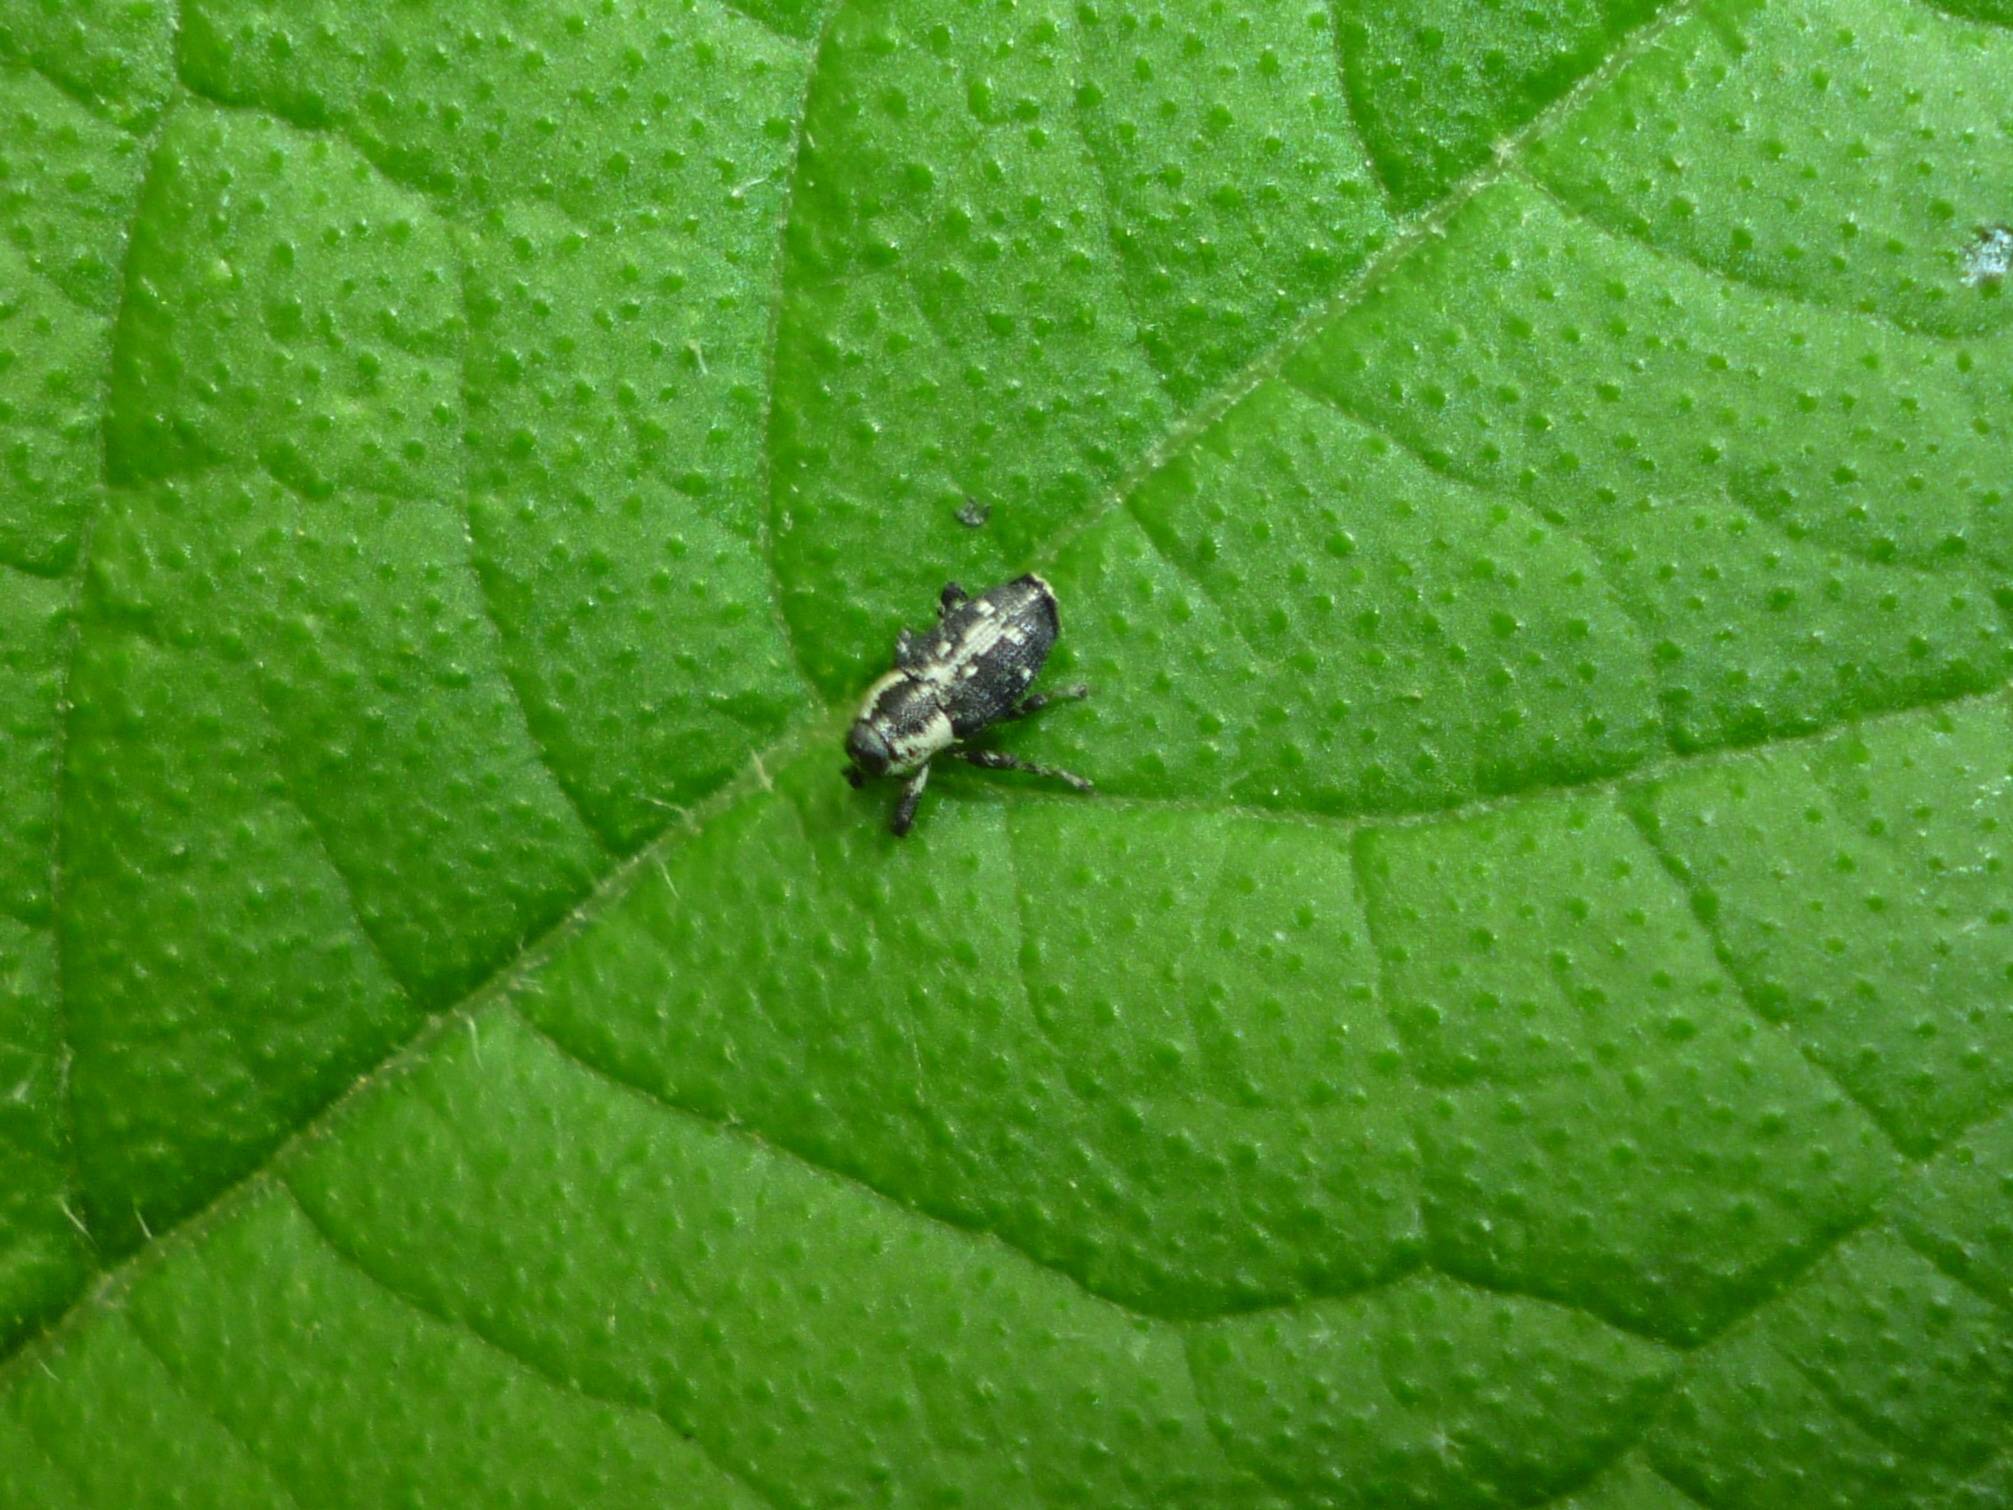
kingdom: Animalia
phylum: Arthropoda
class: Insecta
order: Coleoptera
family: Curculionidae
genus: Cylindrocopturus
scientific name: Cylindrocopturus quercus
